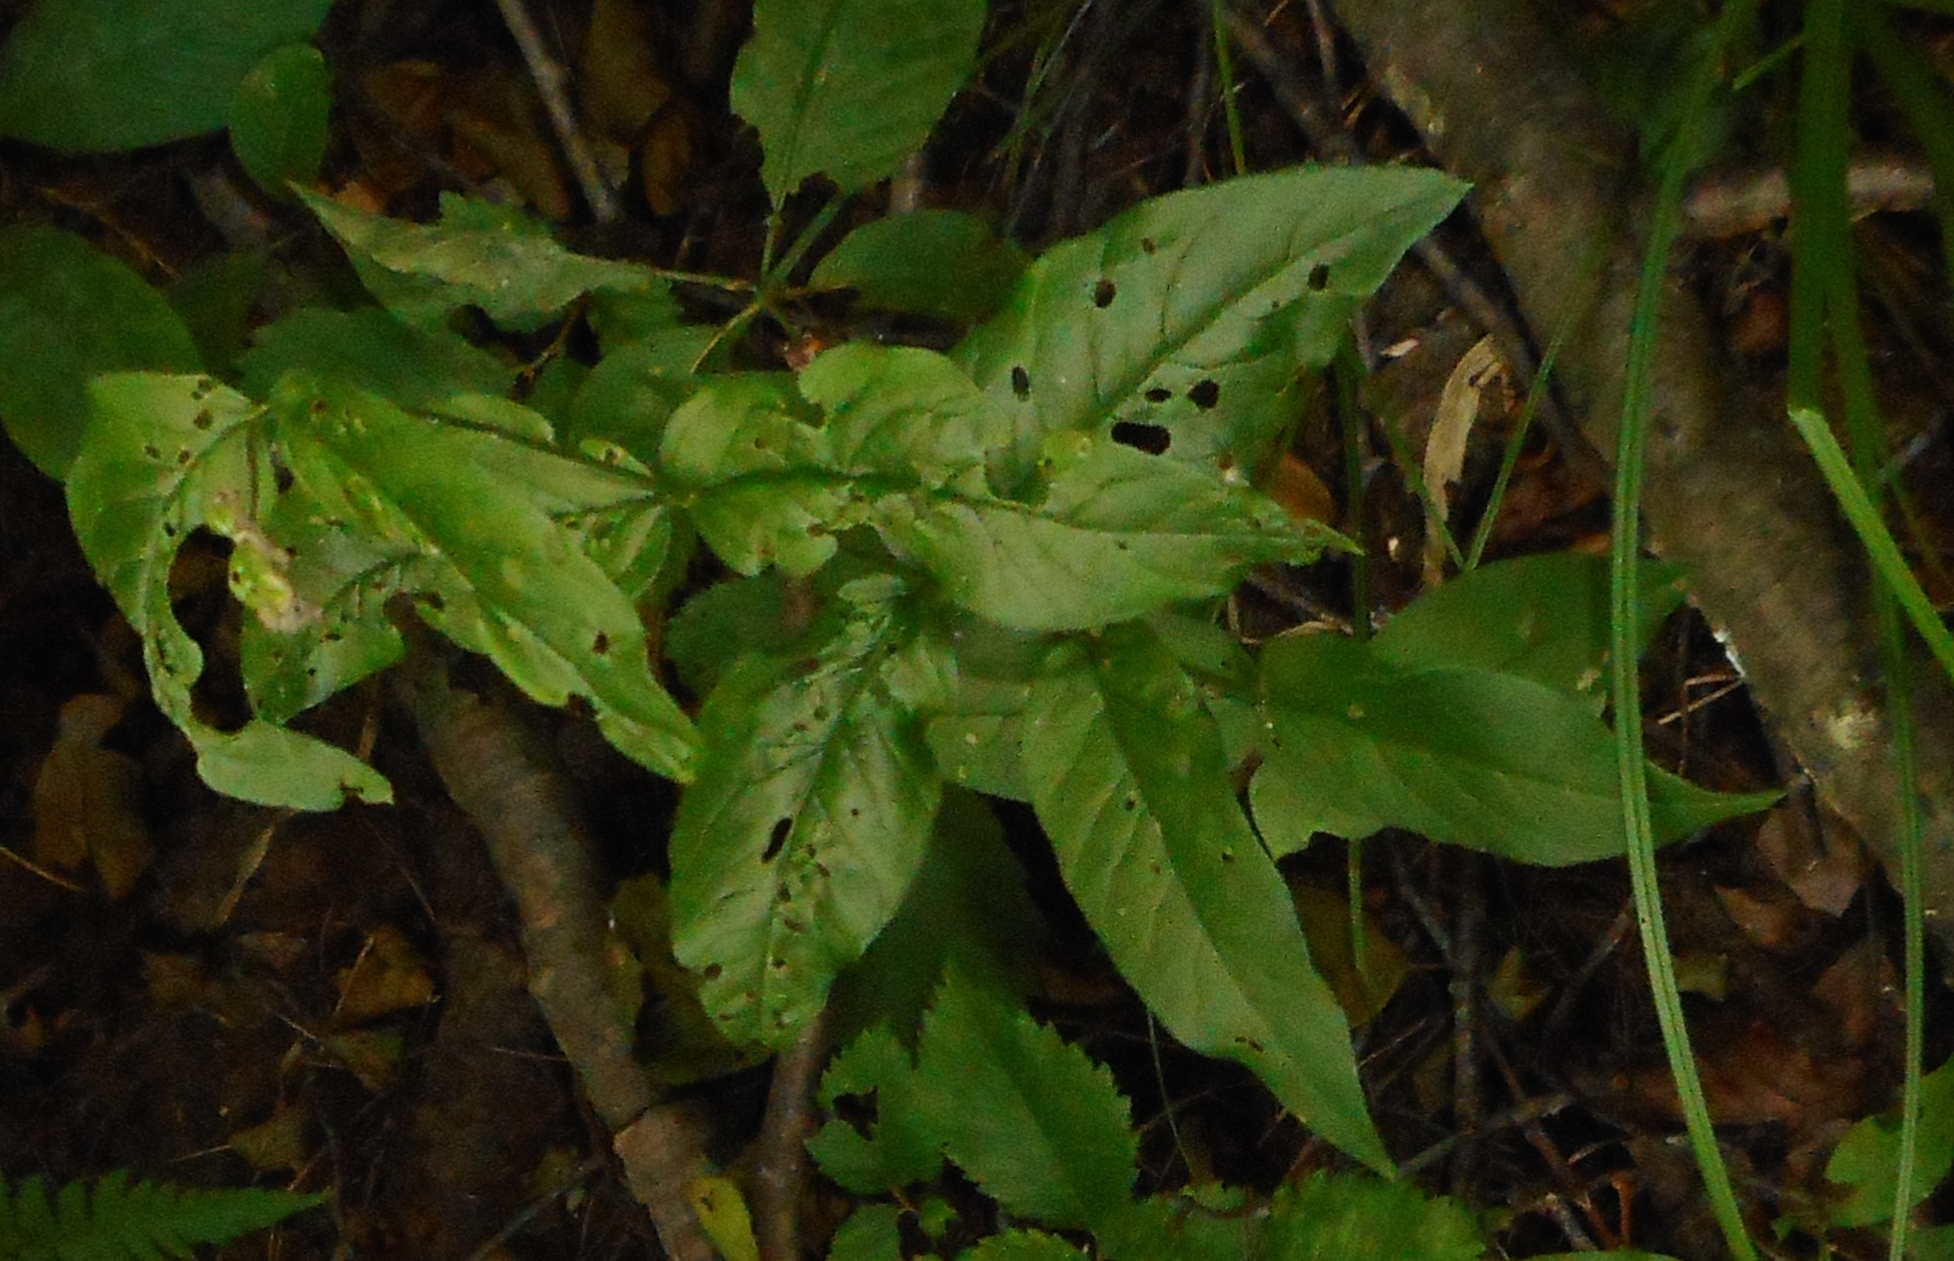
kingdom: Plantae
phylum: Tracheophyta
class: Magnoliopsida
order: Ericales
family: Primulaceae
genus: Lysimachia
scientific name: Lysimachia vulgaris
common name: Yellow loosestrife
